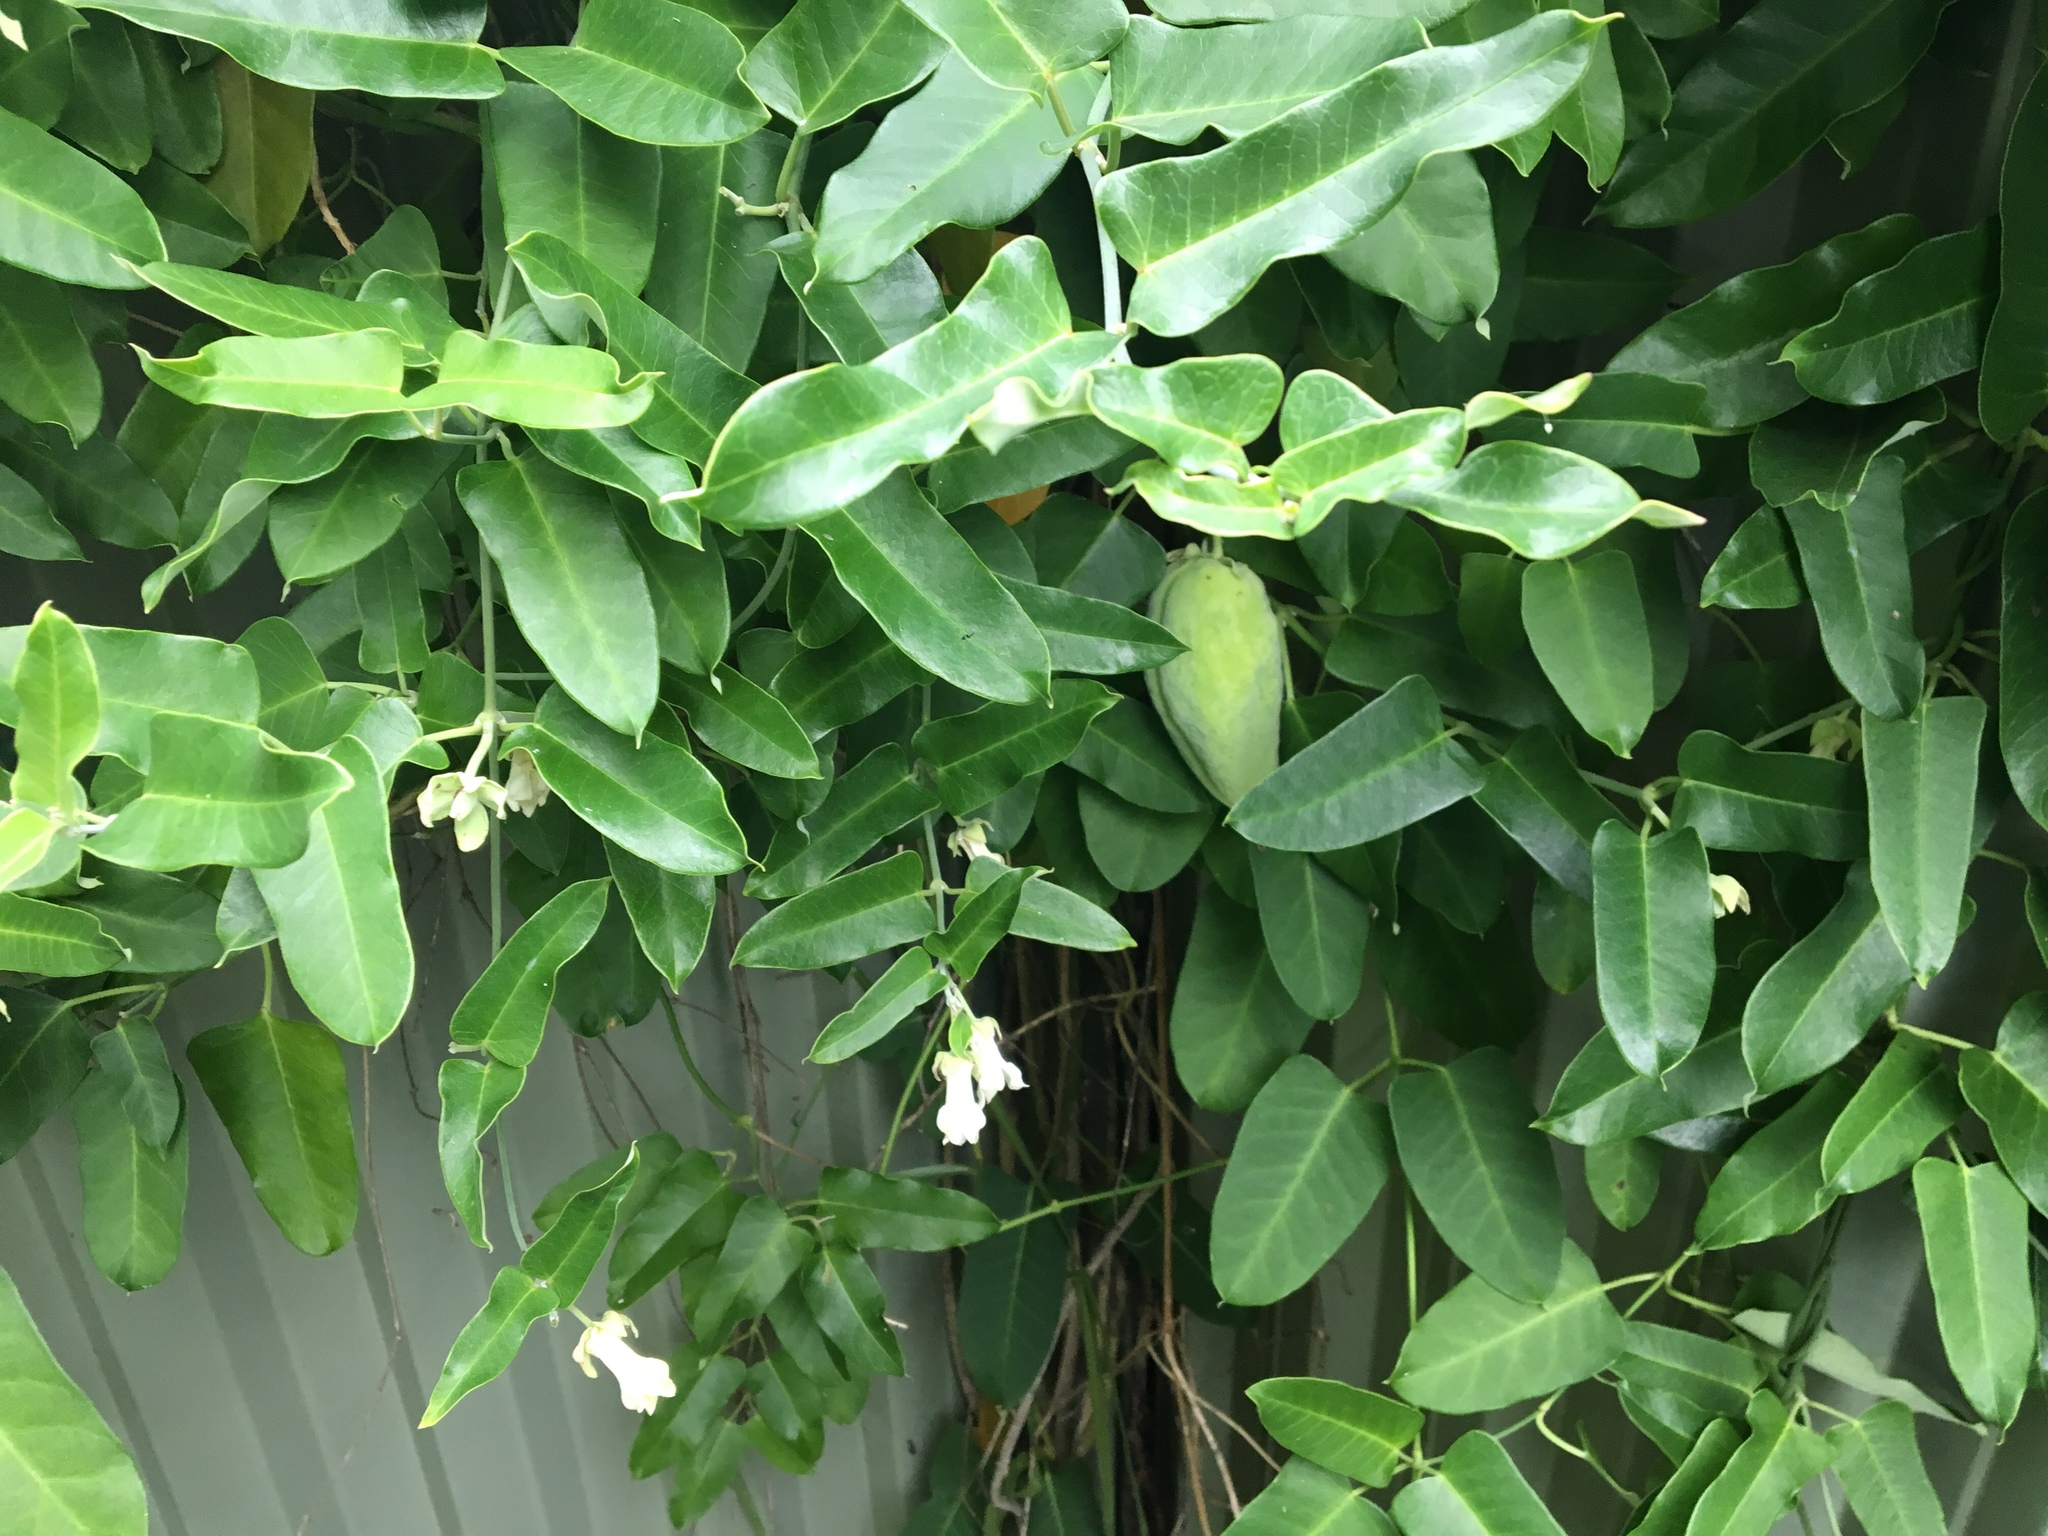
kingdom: Plantae
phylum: Tracheophyta
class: Magnoliopsida
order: Gentianales
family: Apocynaceae
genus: Araujia
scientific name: Araujia sericifera
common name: White bladderflower
